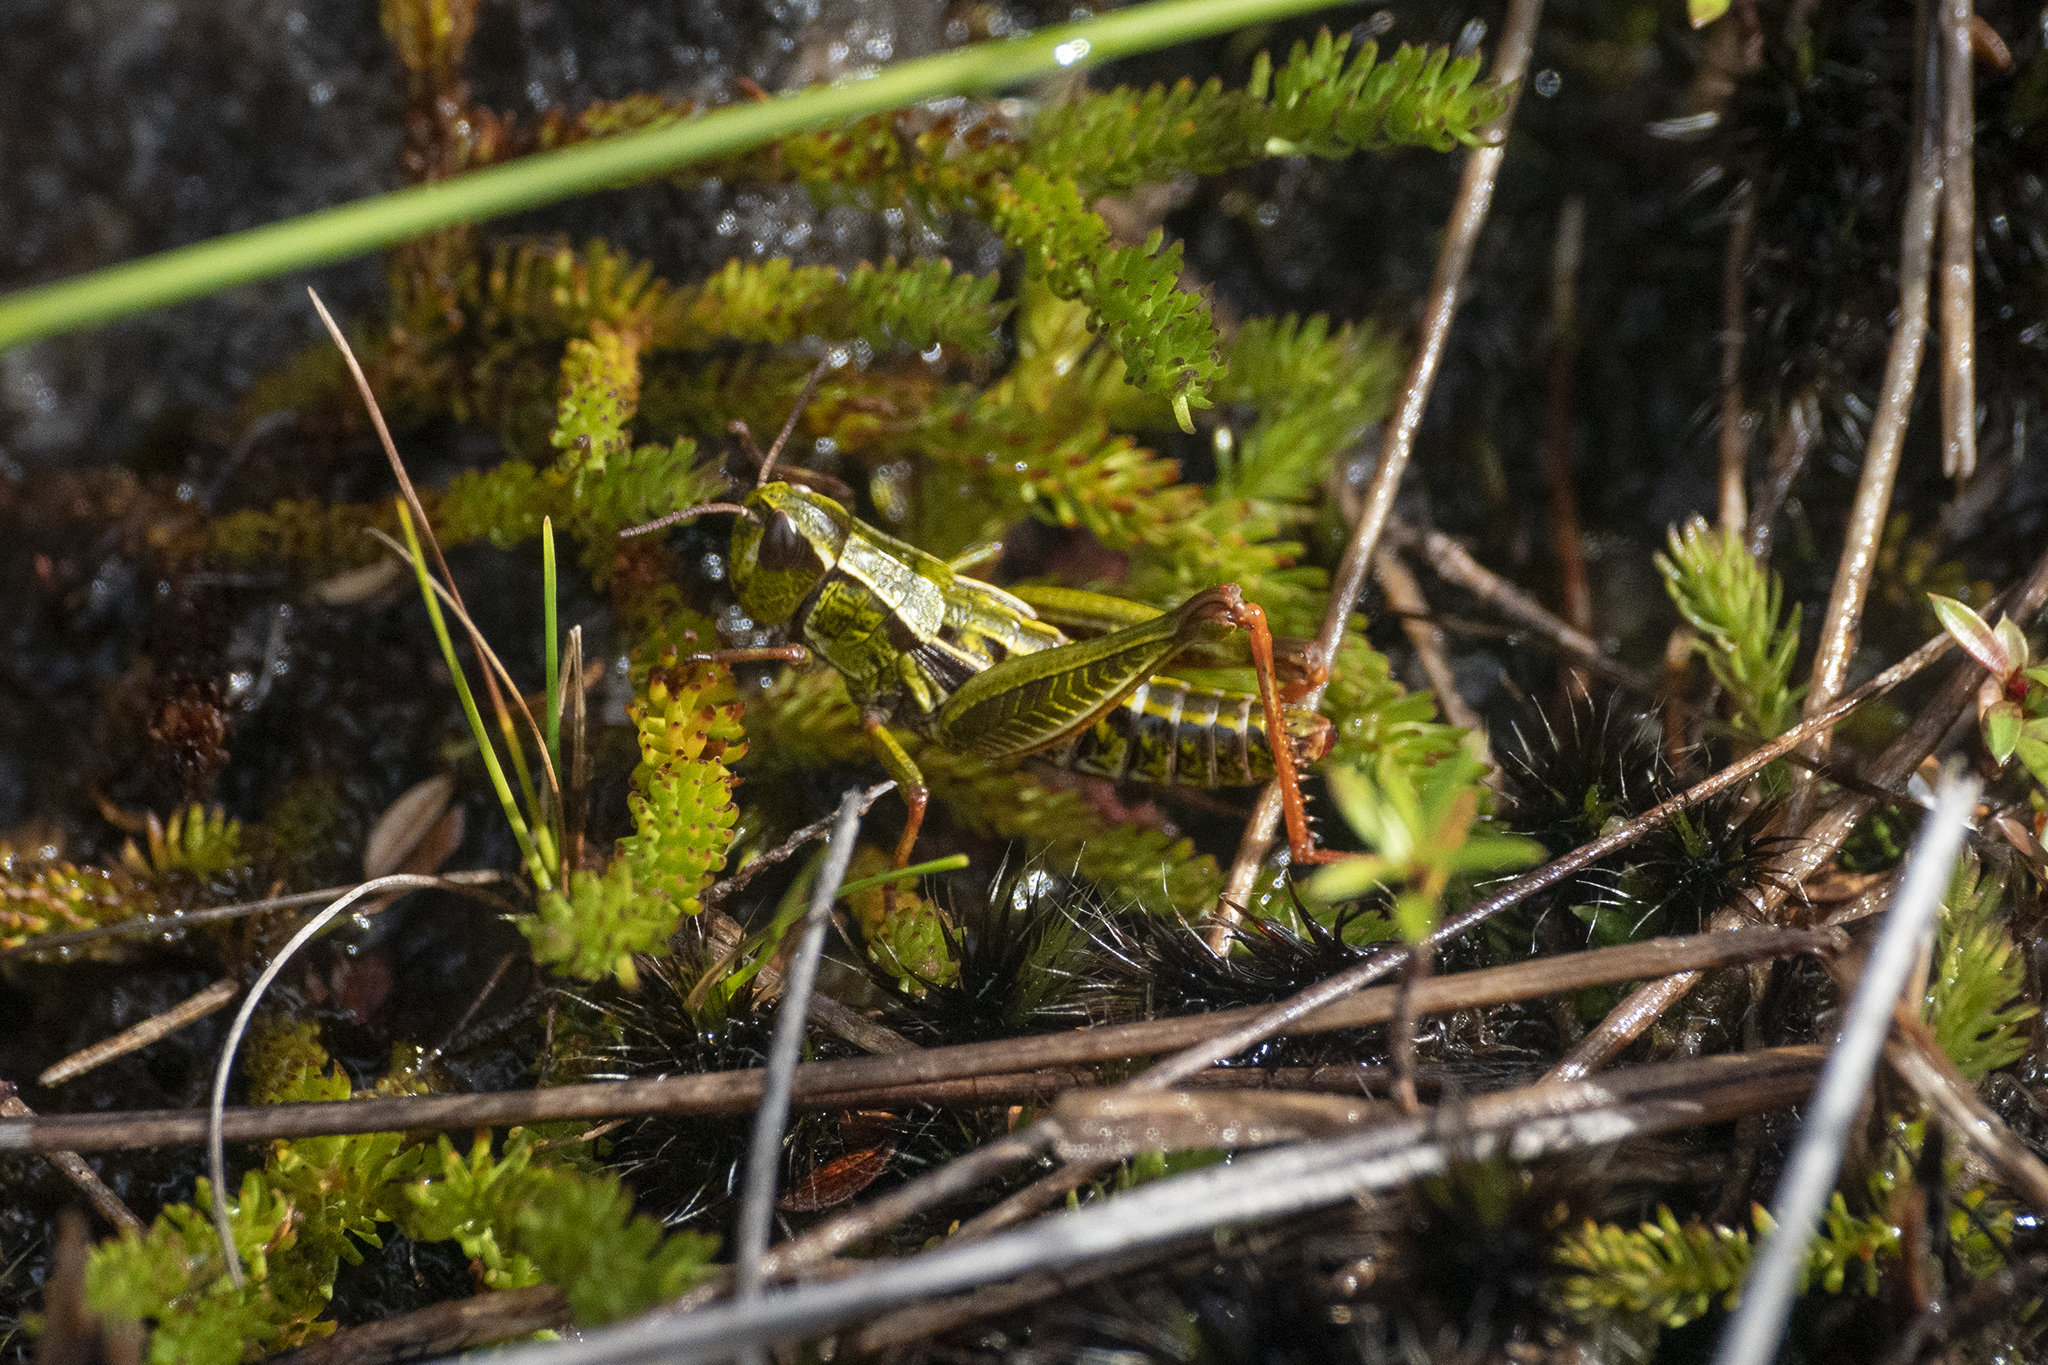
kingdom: Animalia
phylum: Arthropoda
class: Insecta
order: Orthoptera
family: Acrididae
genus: Sigaus
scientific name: Sigaus
